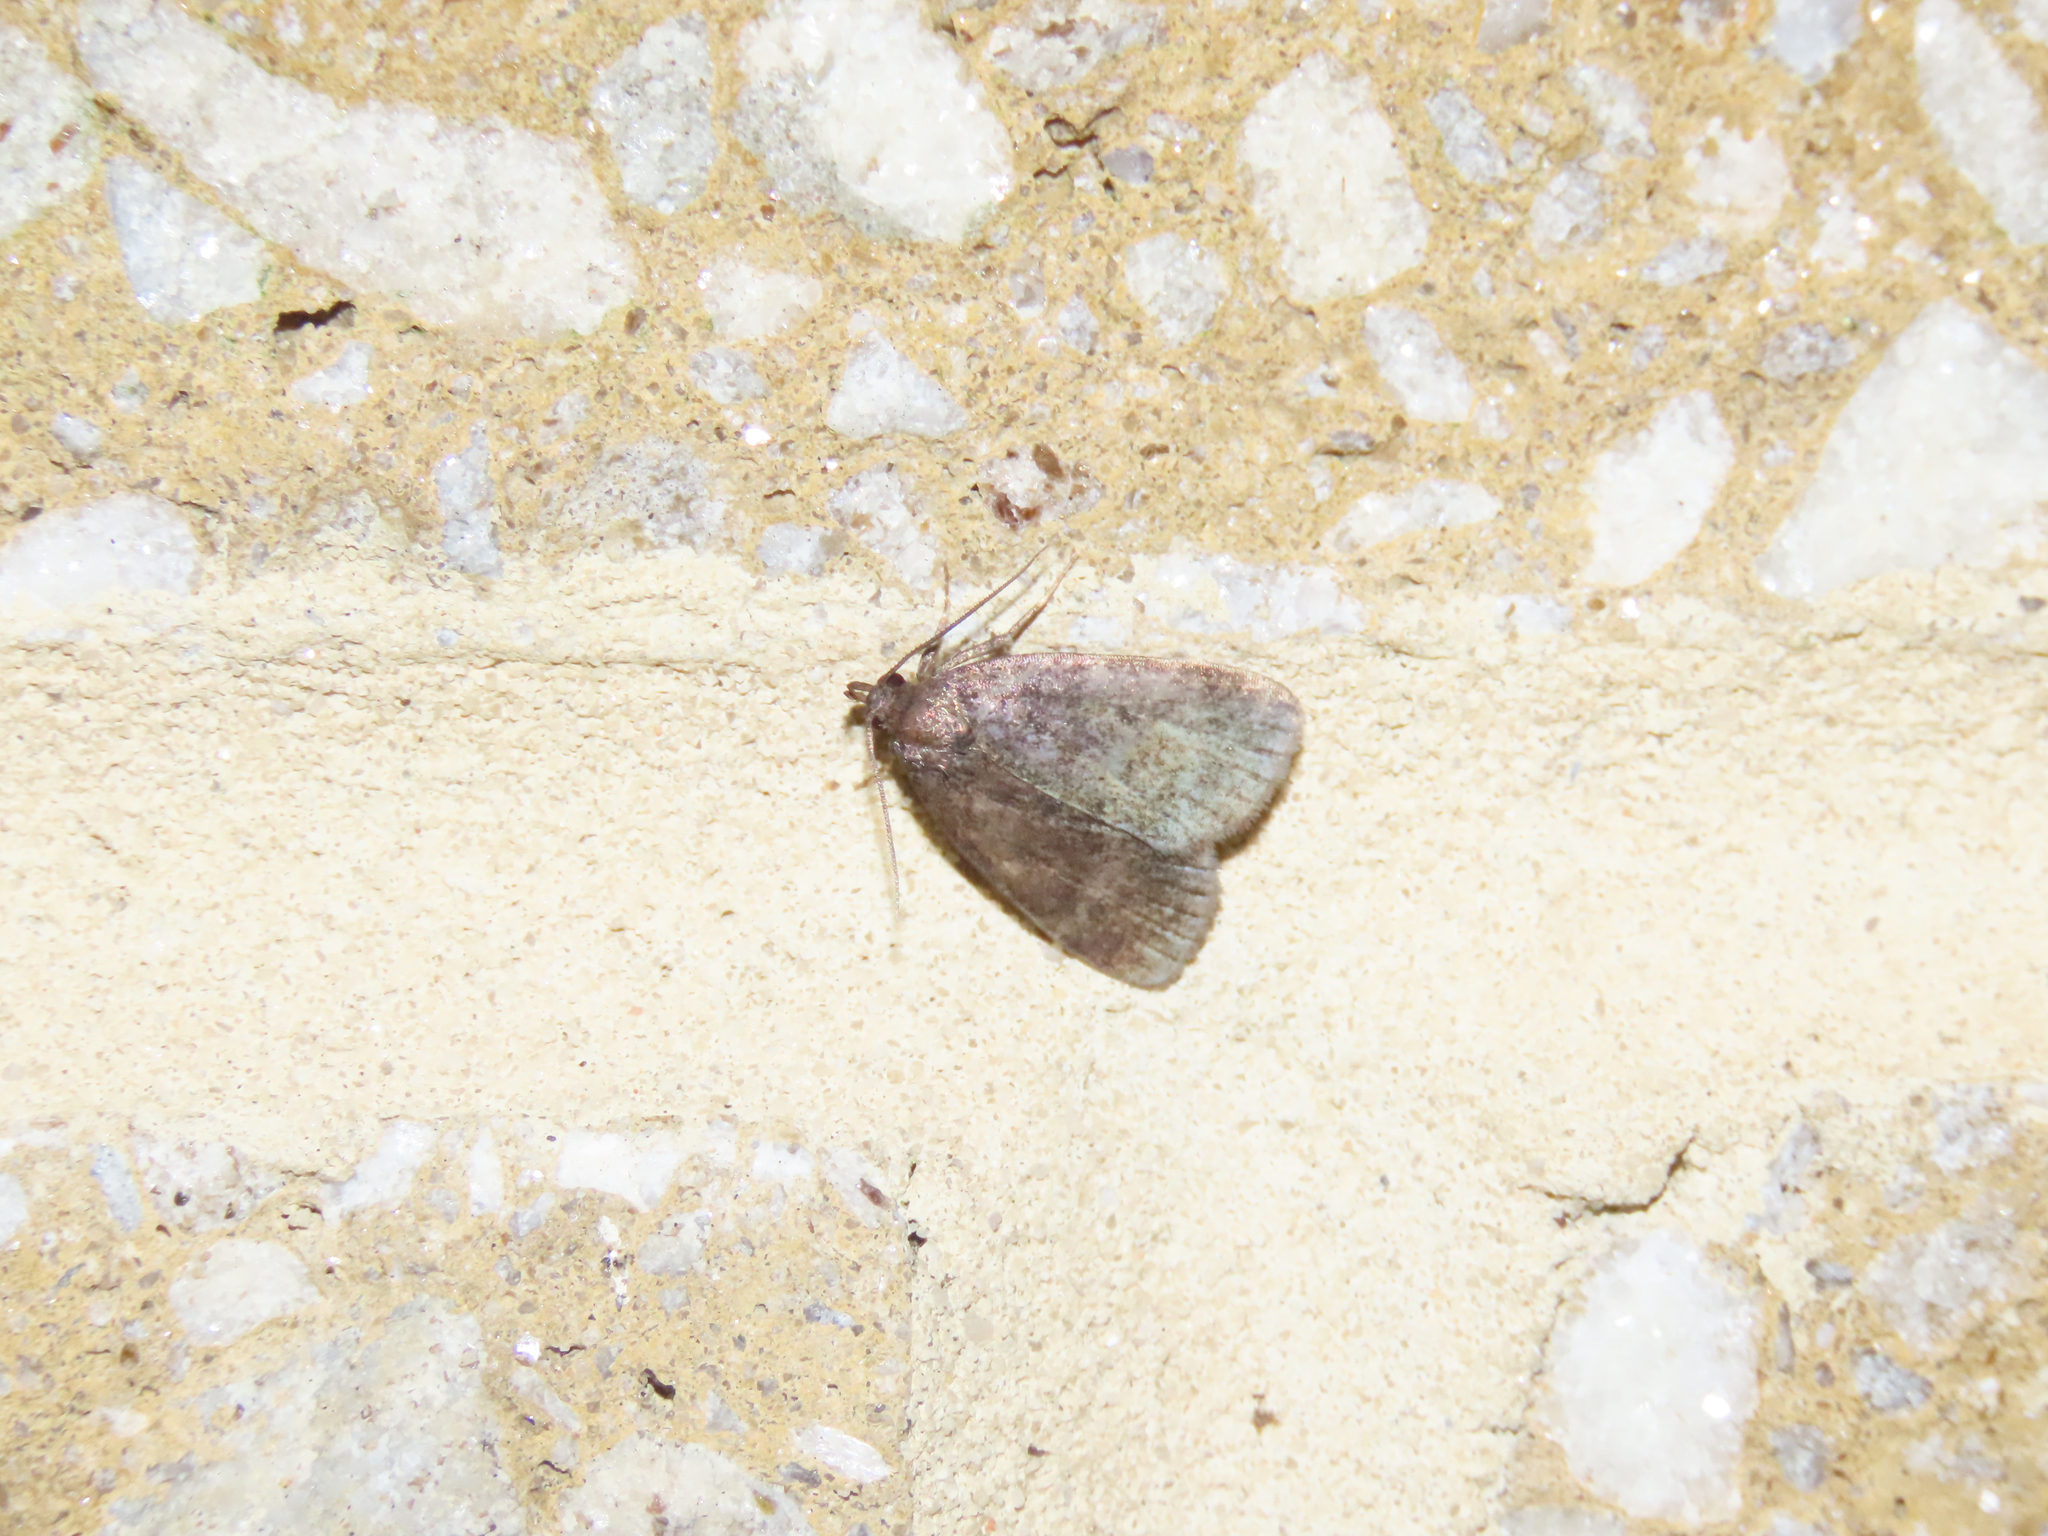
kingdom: Animalia
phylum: Arthropoda
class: Insecta
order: Lepidoptera
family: Erebidae
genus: Idia
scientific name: Idia rotundalis
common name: Rotund idia moth
